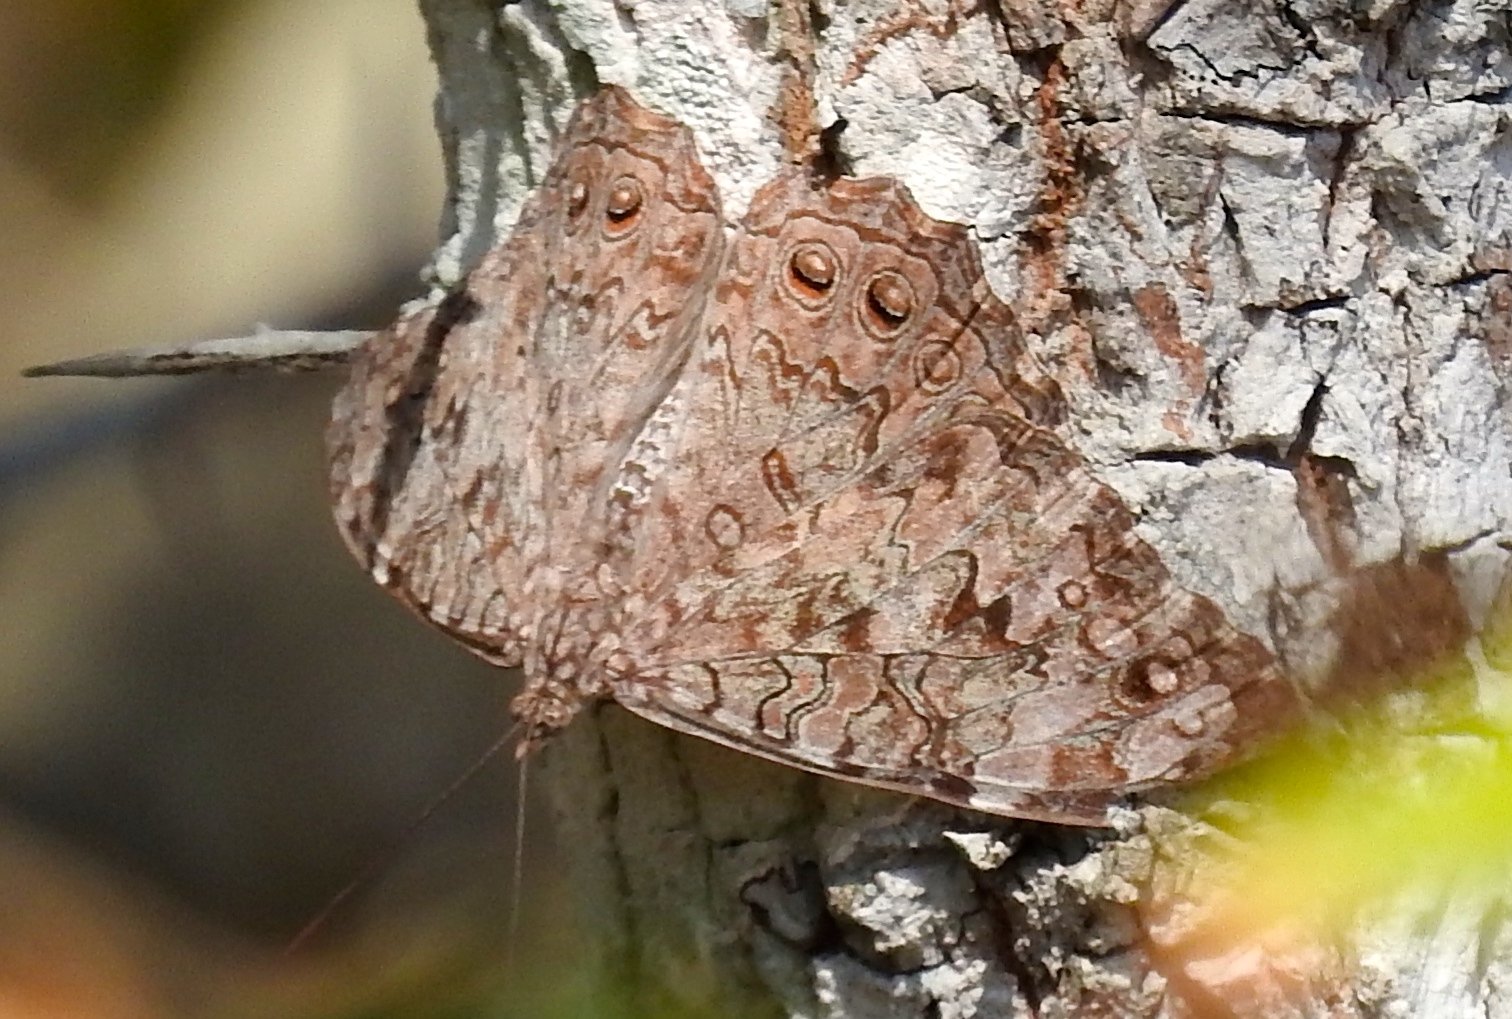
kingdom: Animalia
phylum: Arthropoda
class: Insecta
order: Lepidoptera
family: Nymphalidae
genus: Hamadryas
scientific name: Hamadryas februa
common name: Gray cracker
